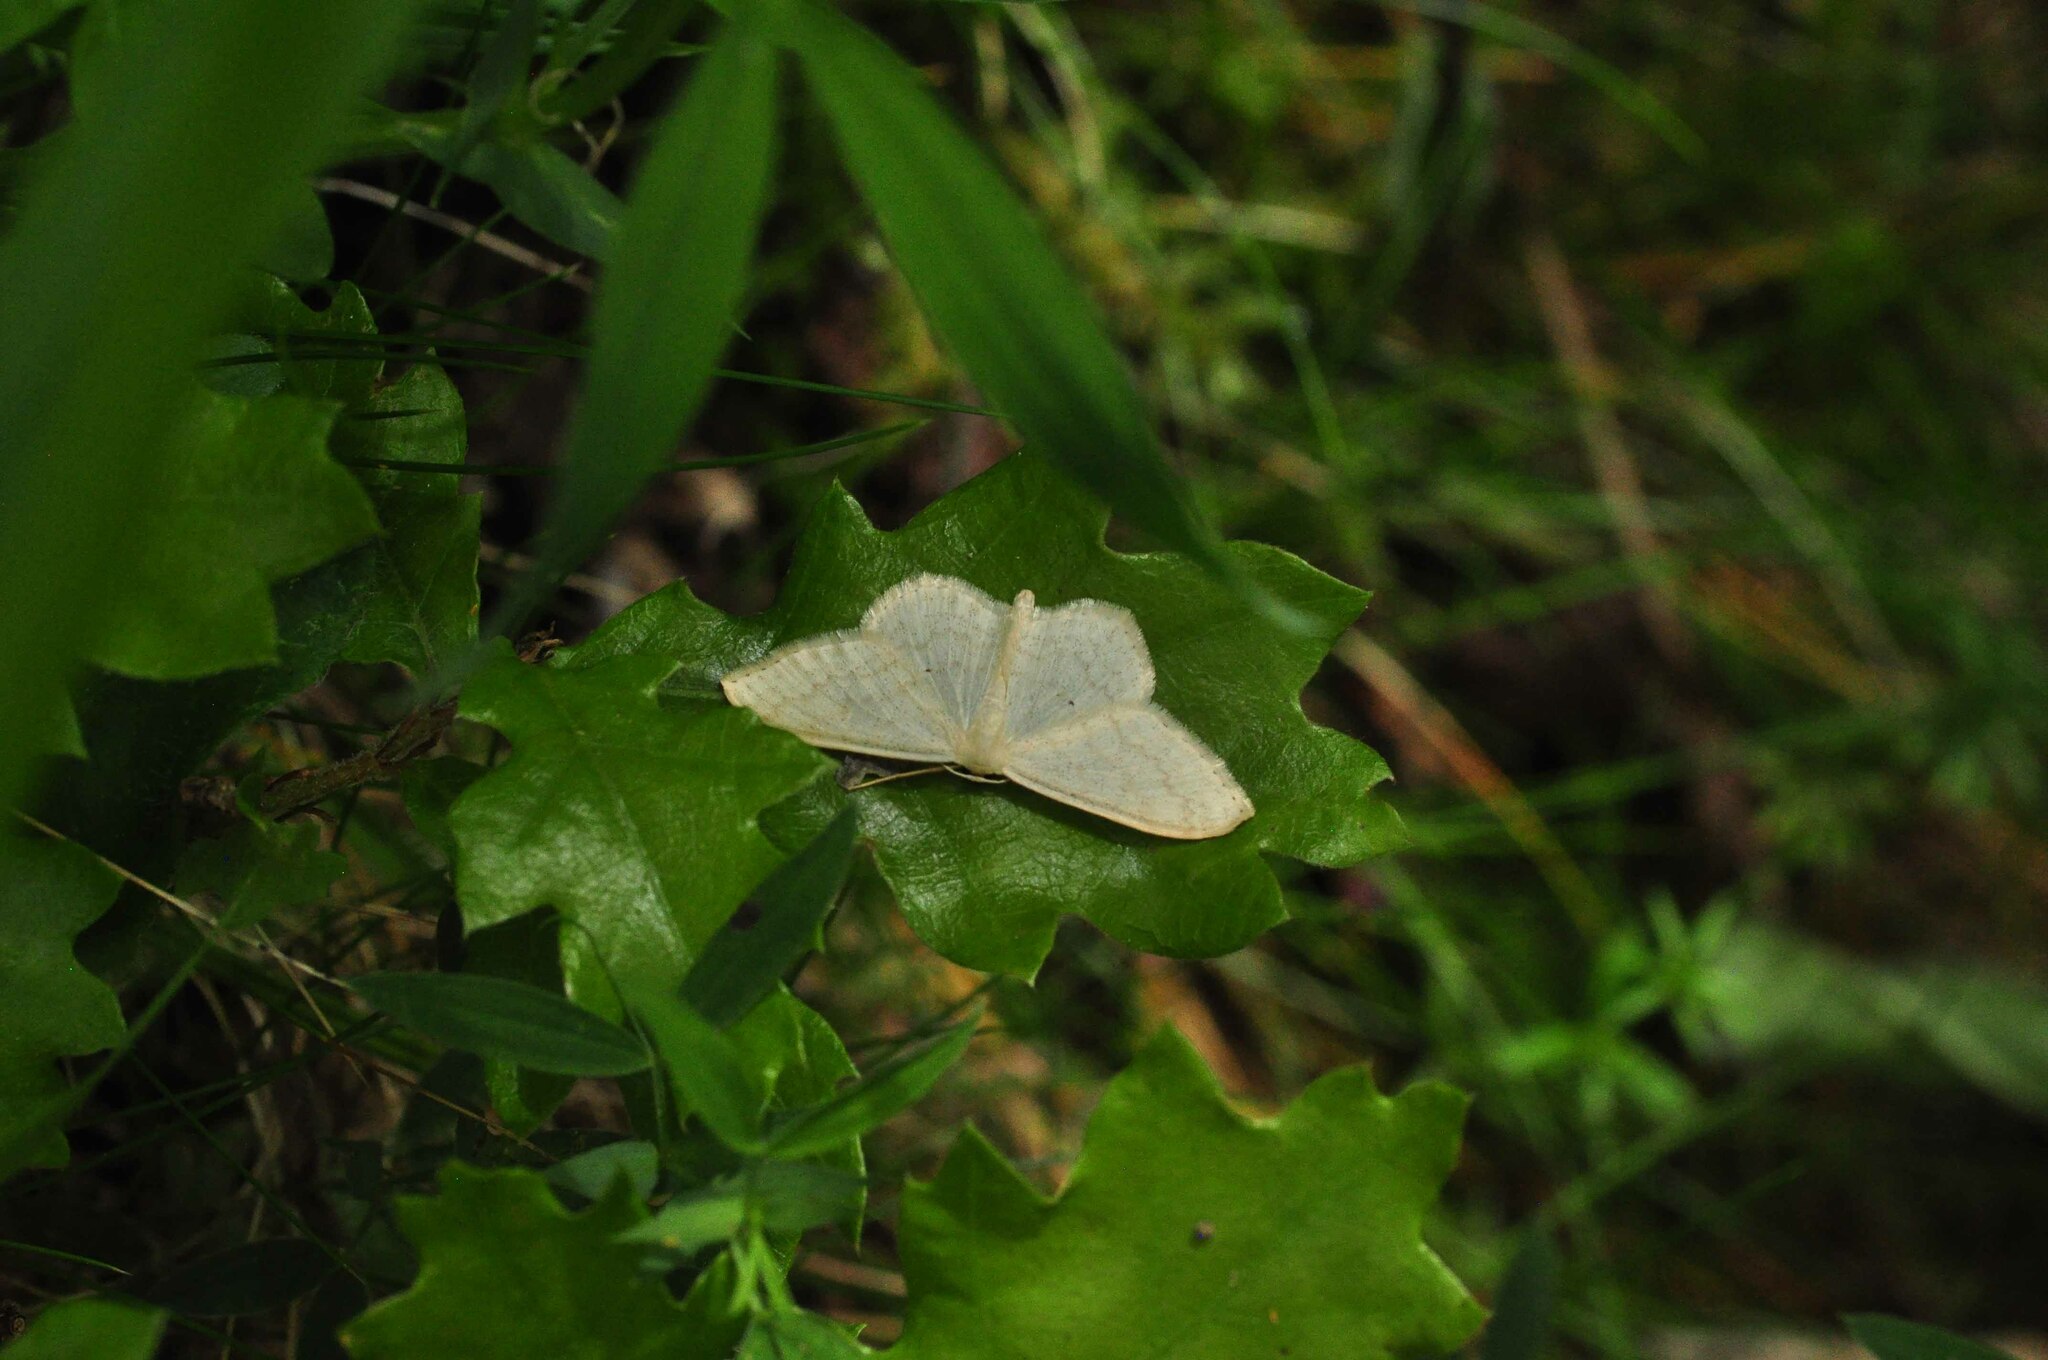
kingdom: Animalia
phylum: Arthropoda
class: Insecta
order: Lepidoptera
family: Geometridae
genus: Scopula
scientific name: Scopula floslactata
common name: Cream wave
